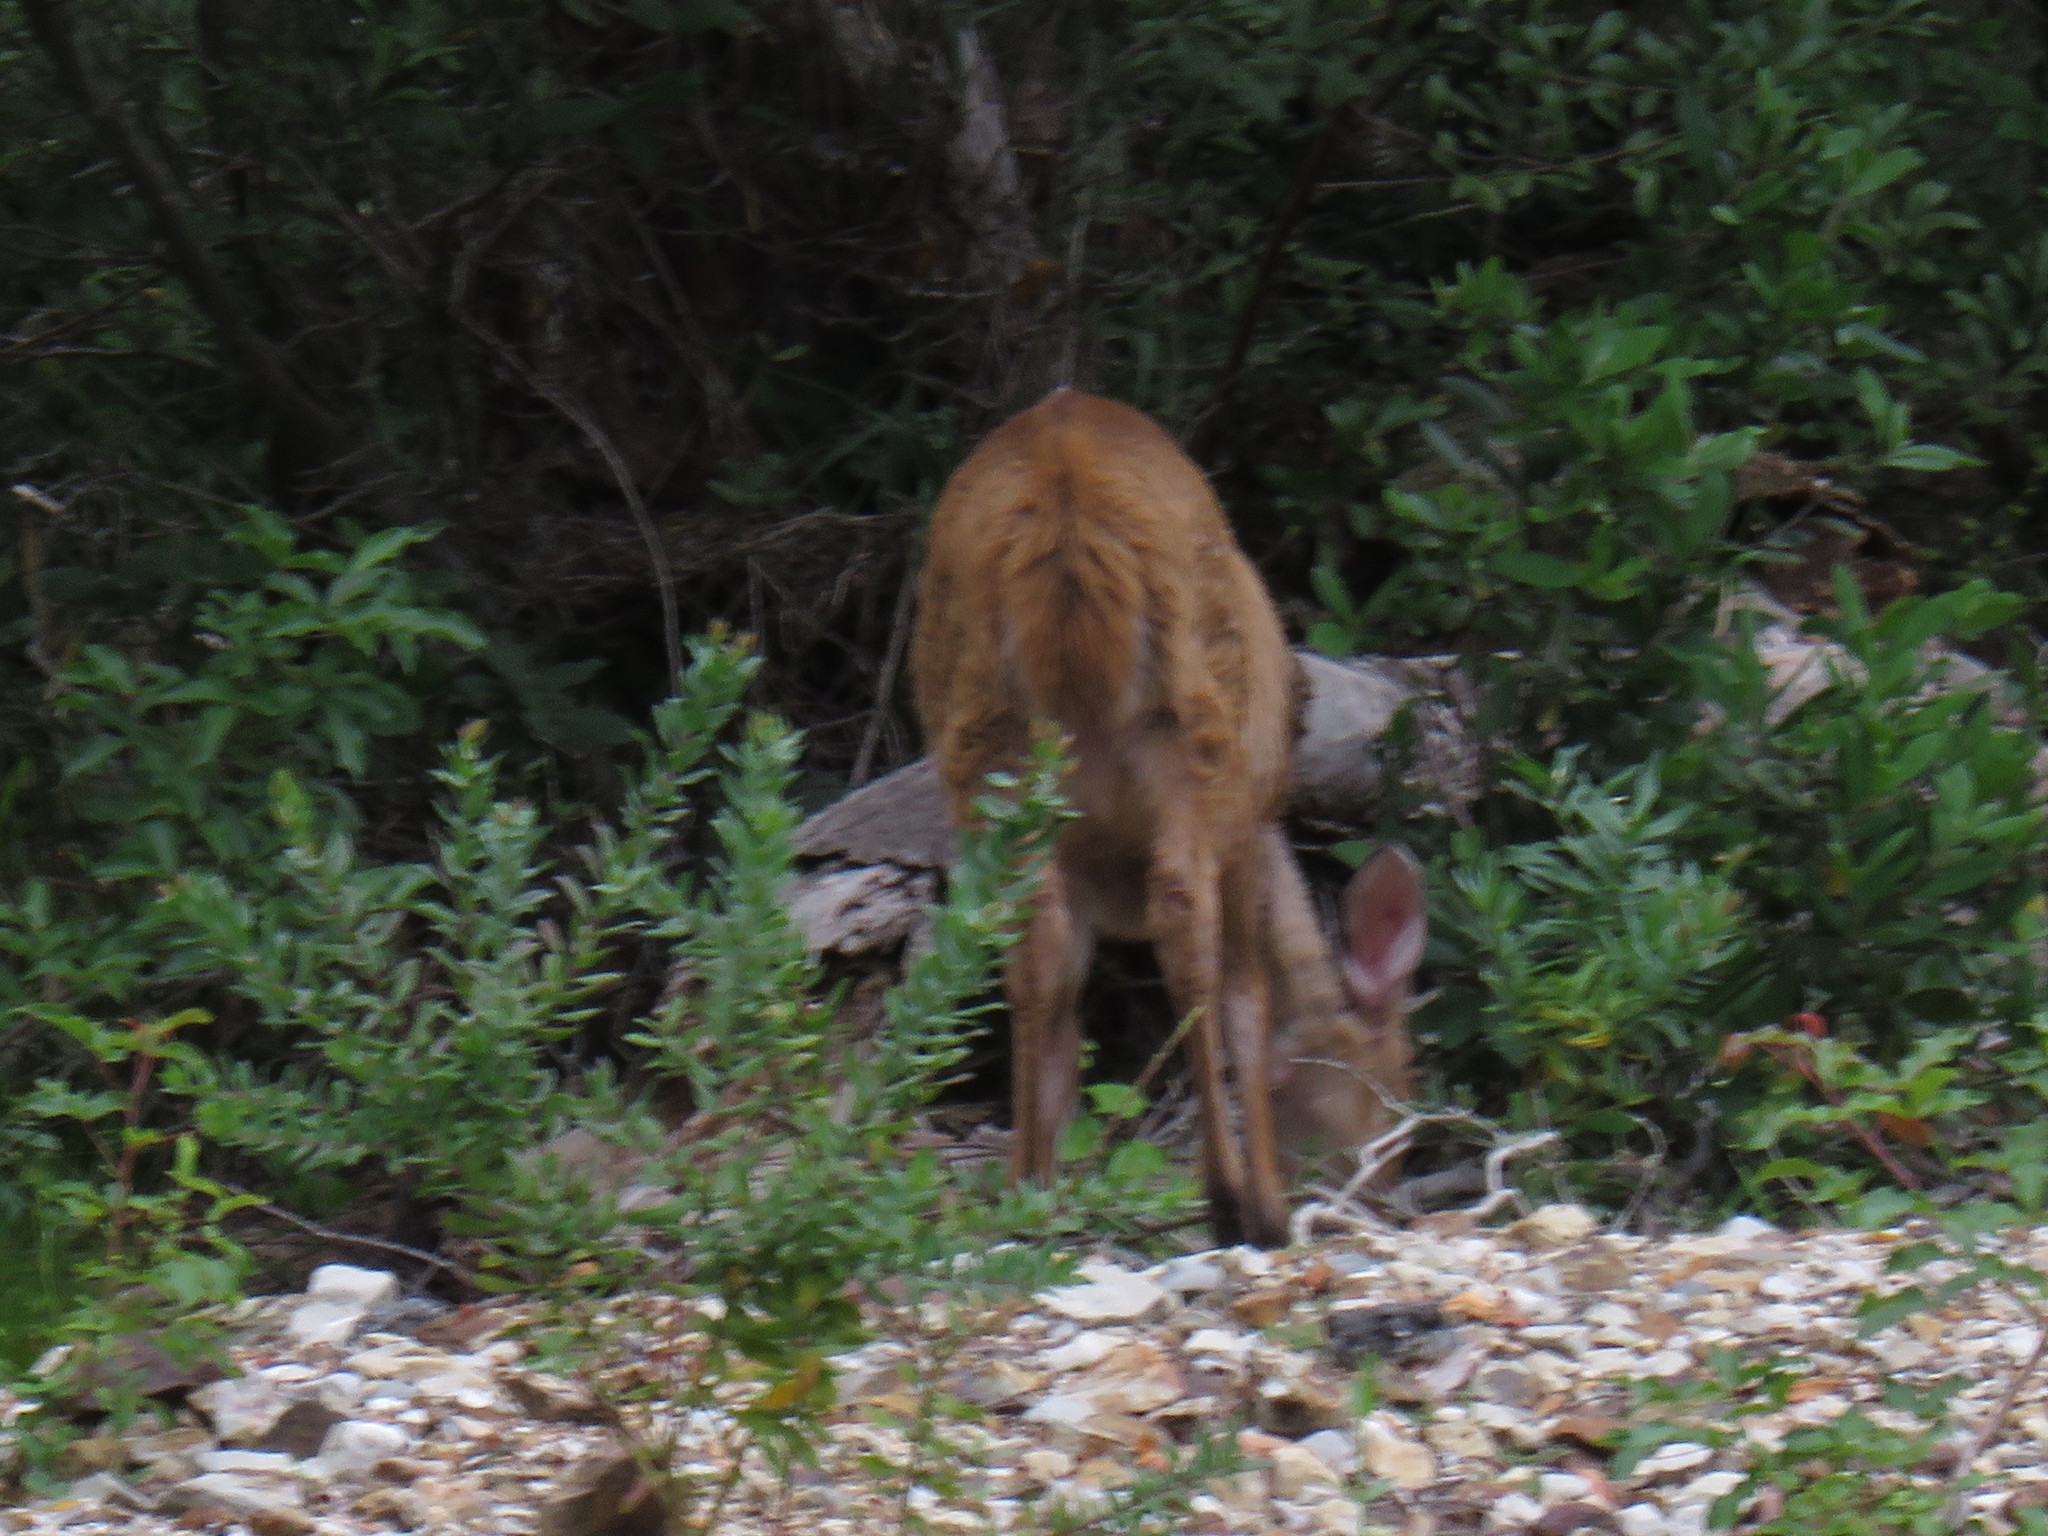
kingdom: Animalia
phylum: Chordata
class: Mammalia
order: Artiodactyla
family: Bovidae
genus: Tragelaphus
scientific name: Tragelaphus scriptus
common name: Bushbuck
